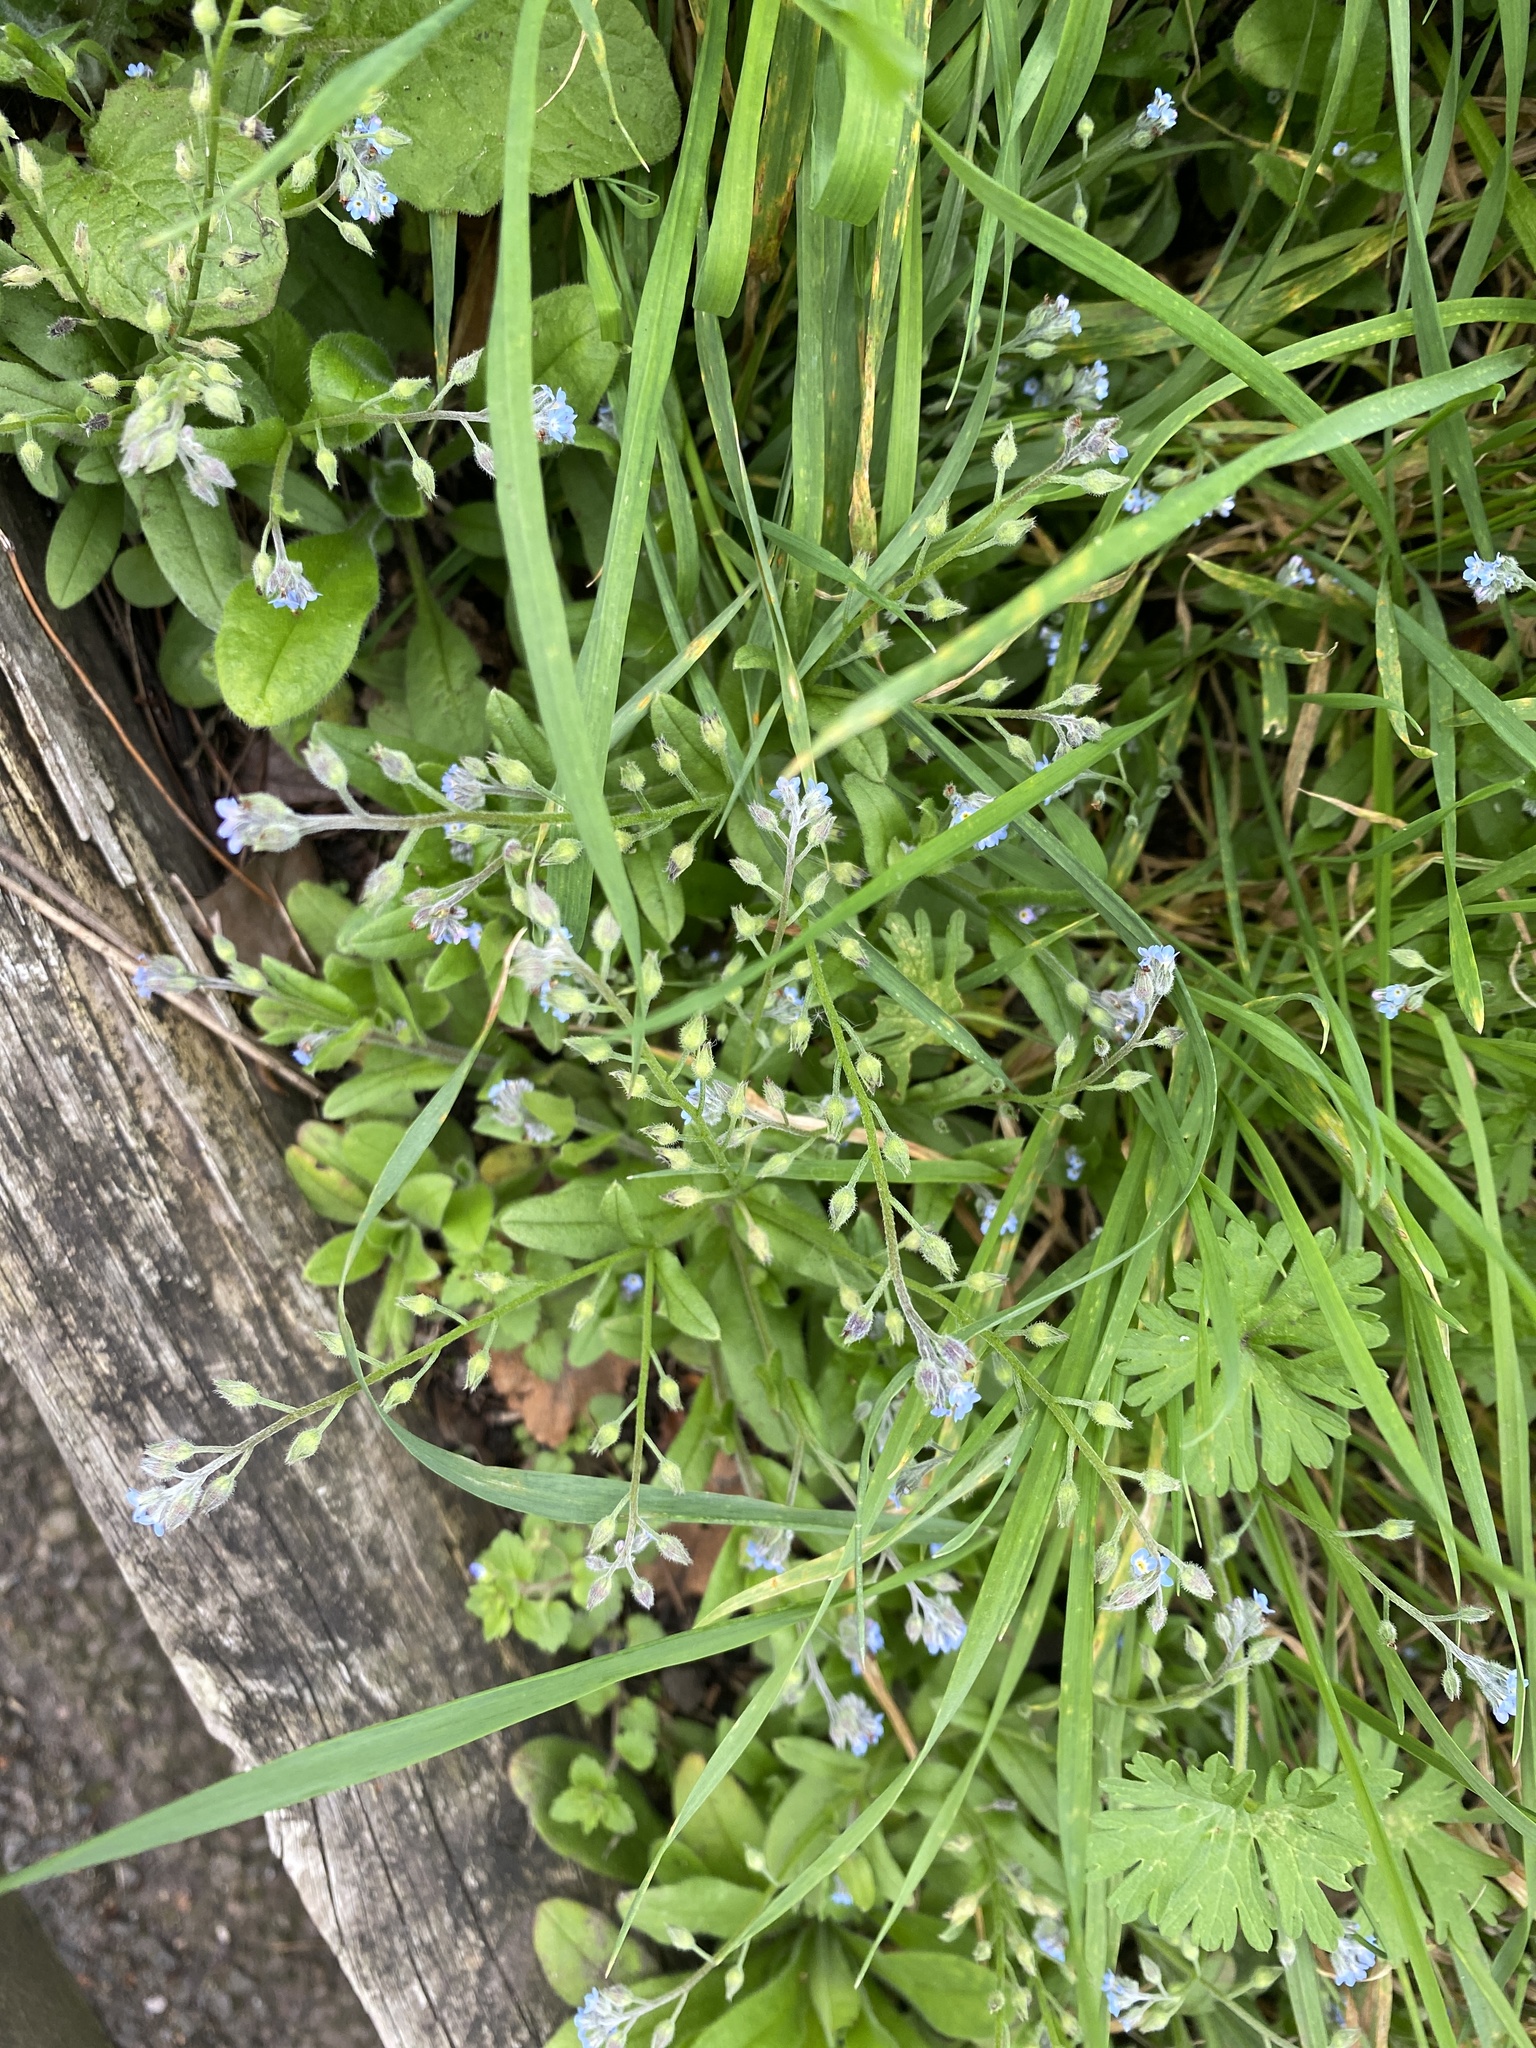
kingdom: Plantae
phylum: Tracheophyta
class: Magnoliopsida
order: Boraginales
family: Boraginaceae
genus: Myosotis
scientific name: Myosotis arvensis
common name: Field forget-me-not
